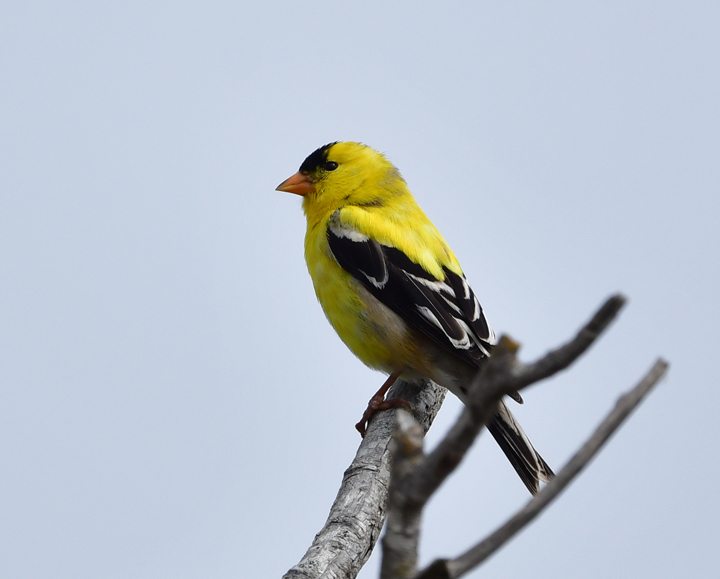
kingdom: Animalia
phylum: Chordata
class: Aves
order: Passeriformes
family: Fringillidae
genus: Spinus
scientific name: Spinus tristis
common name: American goldfinch
